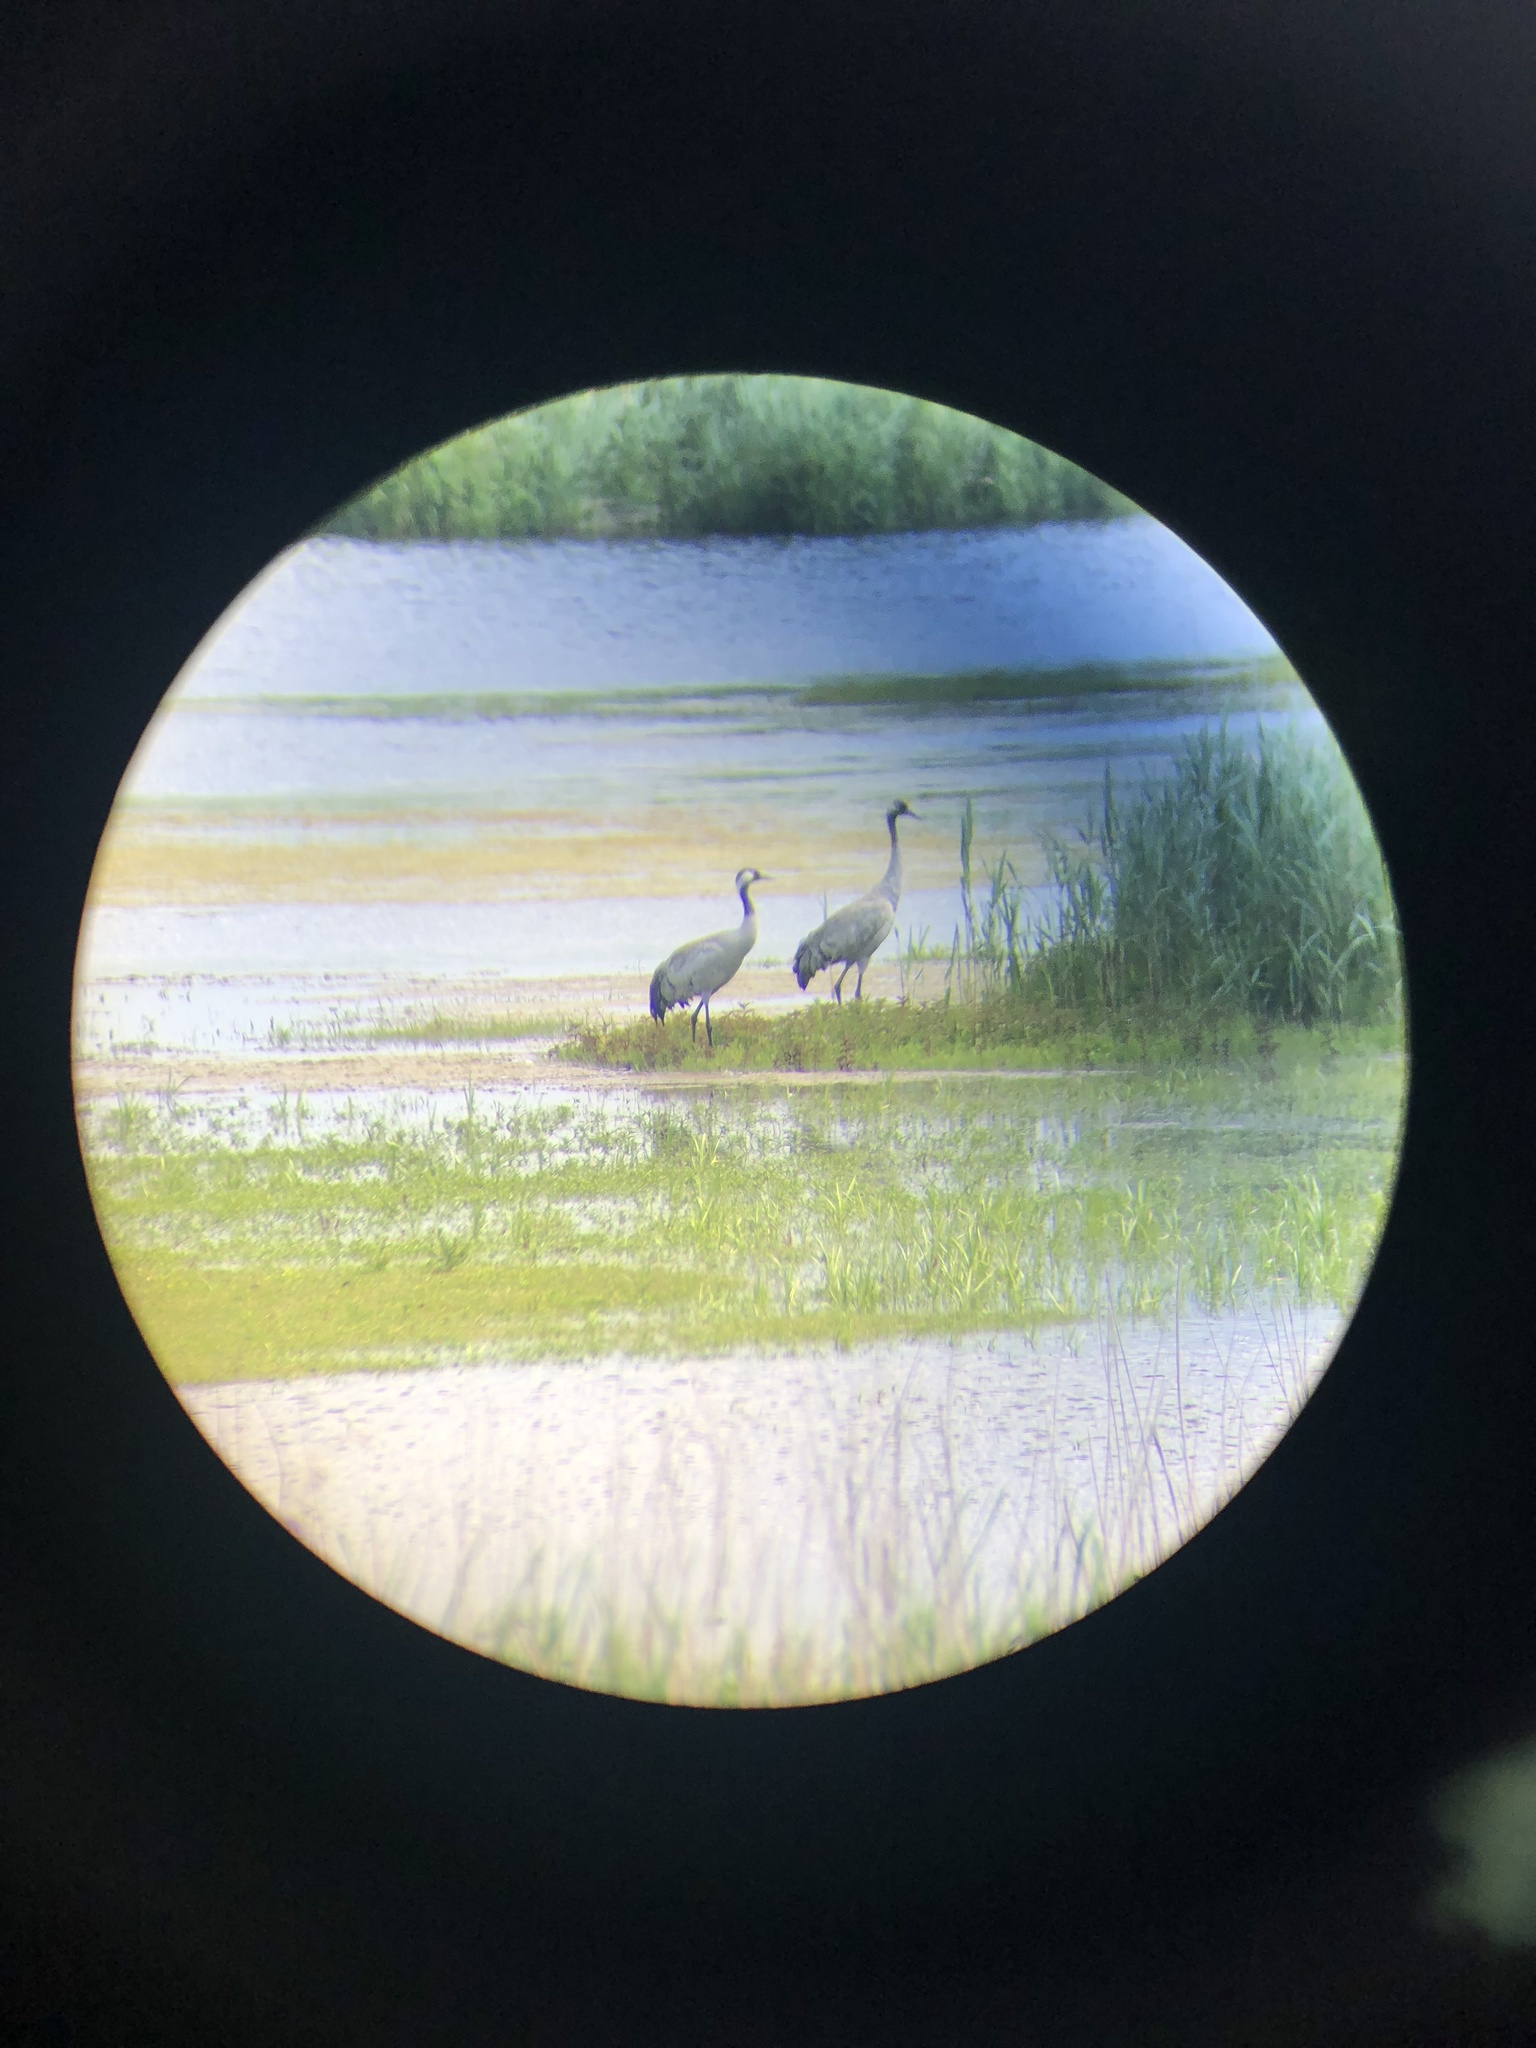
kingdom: Animalia
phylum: Chordata
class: Aves
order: Gruiformes
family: Gruidae
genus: Grus
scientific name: Grus grus
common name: Common crane
